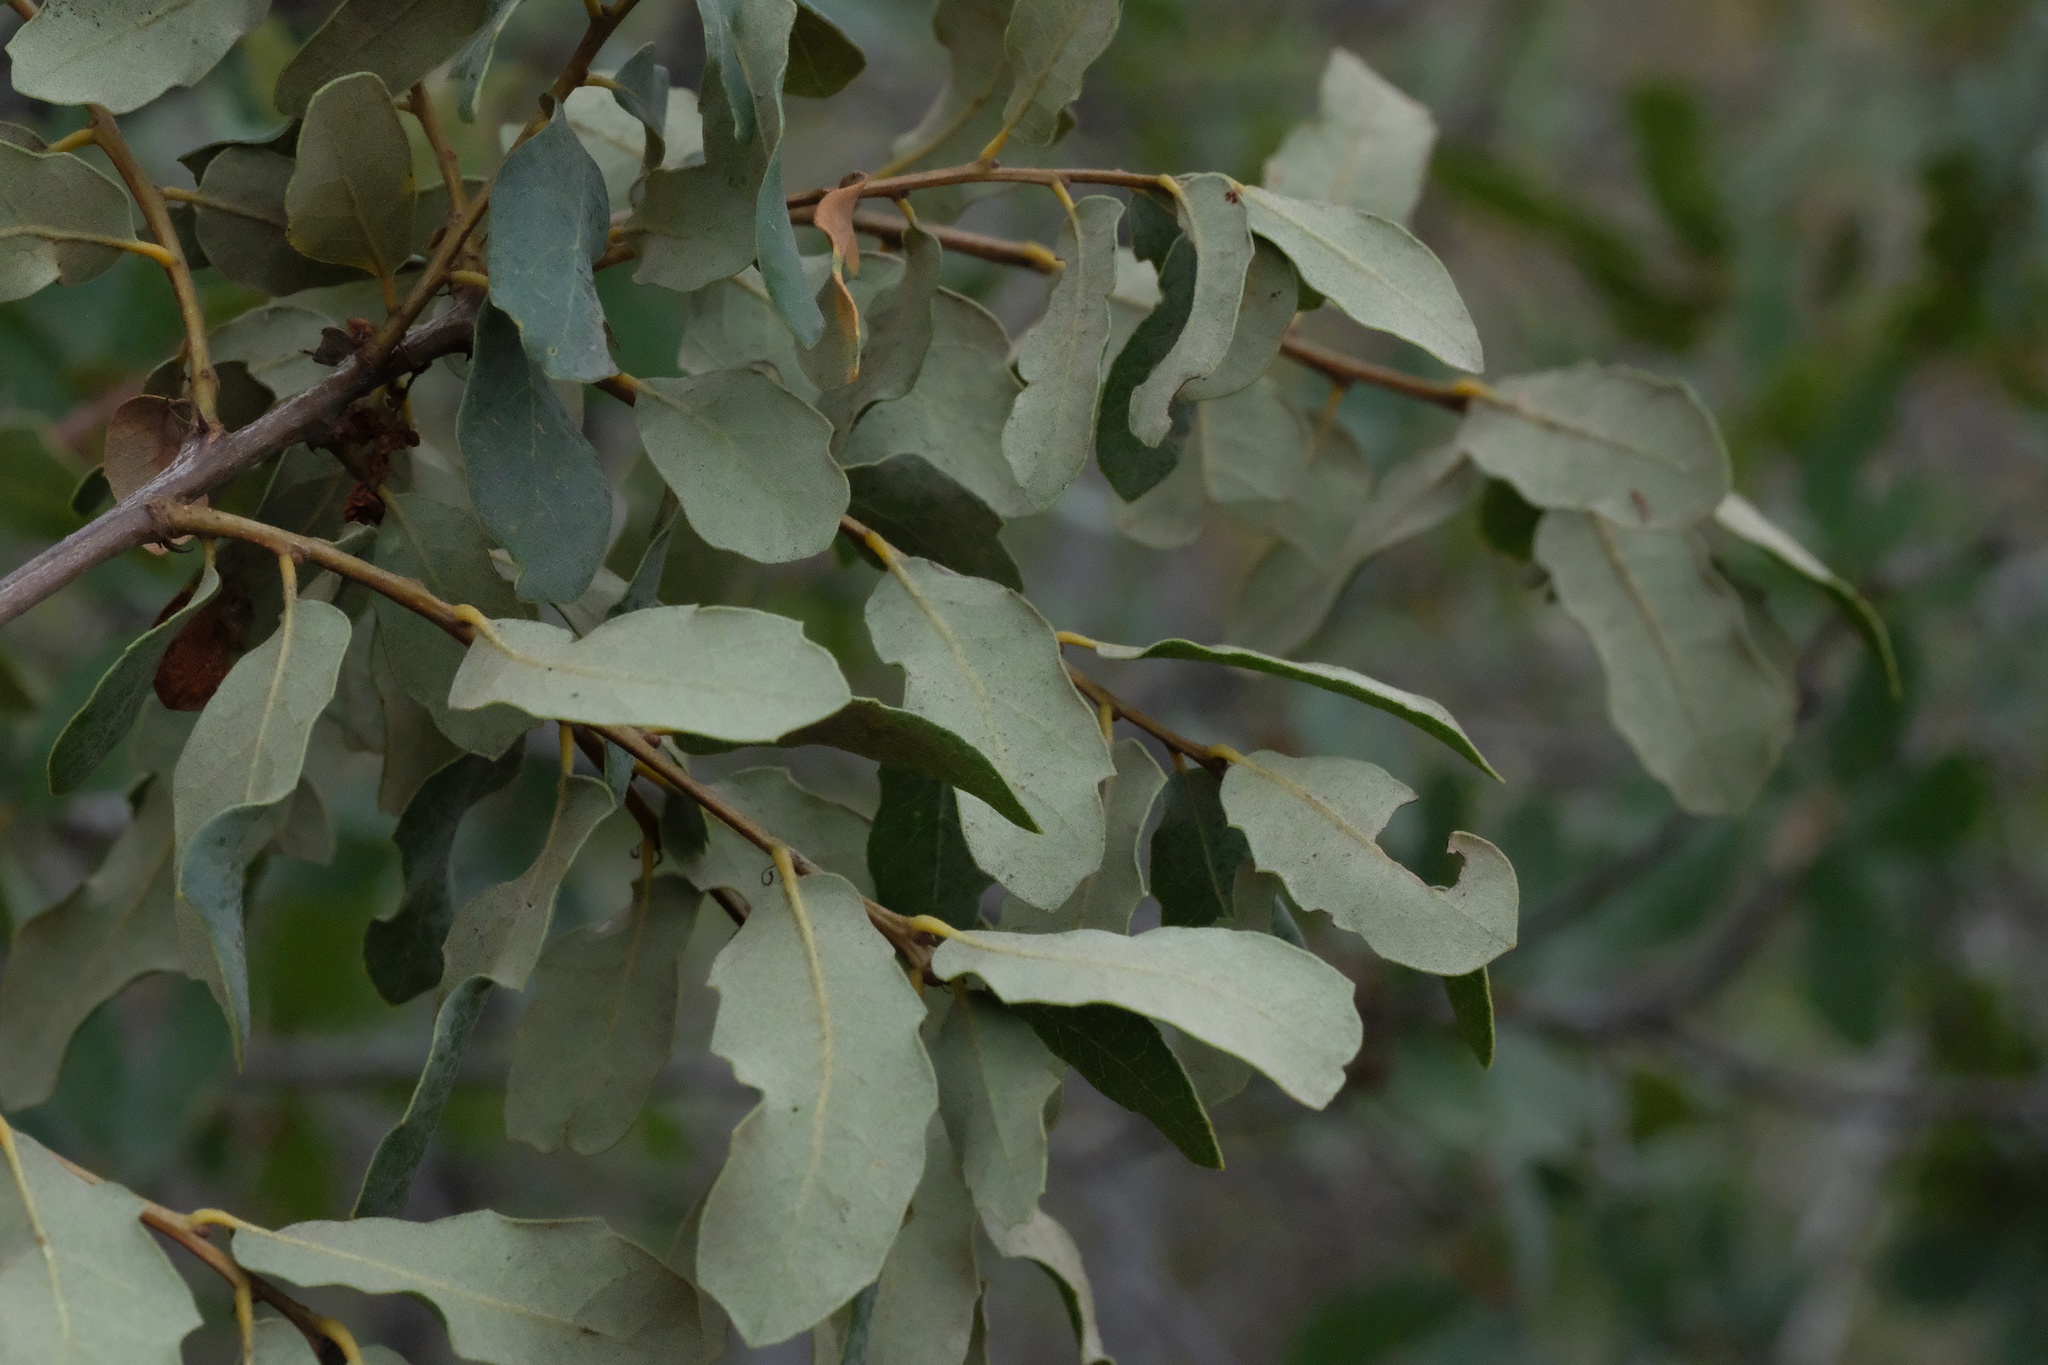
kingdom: Plantae
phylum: Tracheophyta
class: Magnoliopsida
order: Fagales
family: Fagaceae
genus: Quercus
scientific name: Quercus engelmannii
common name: Engelmann oak
